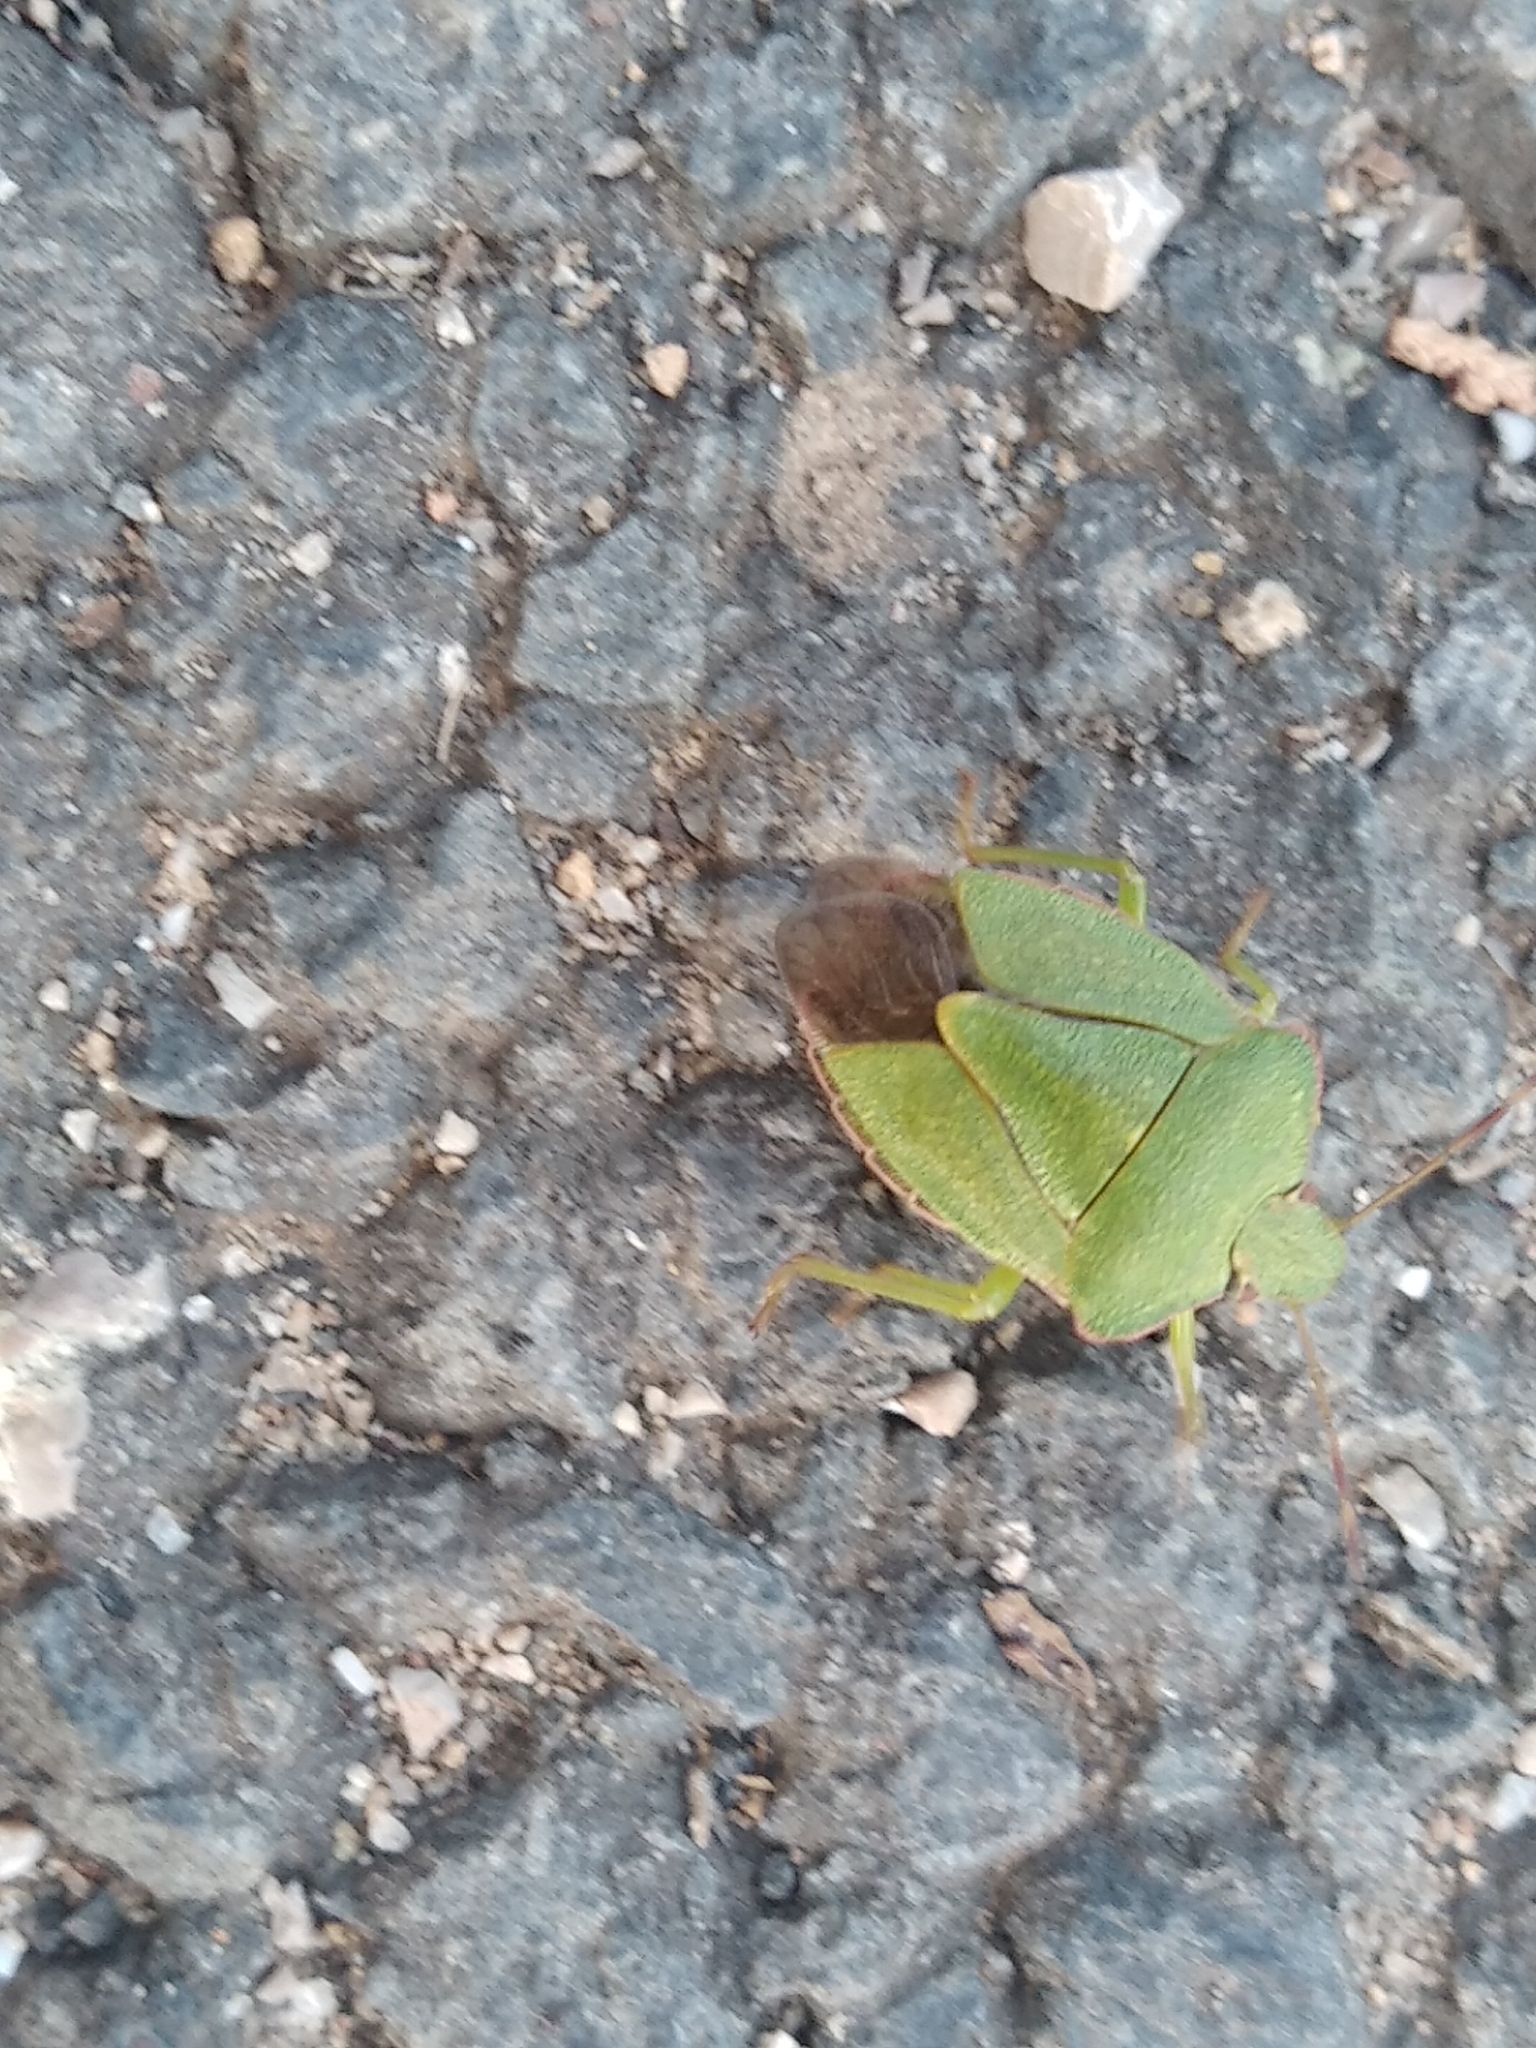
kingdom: Animalia
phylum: Arthropoda
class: Insecta
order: Hemiptera
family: Pentatomidae
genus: Palomena
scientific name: Palomena prasina
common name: Green shieldbug
